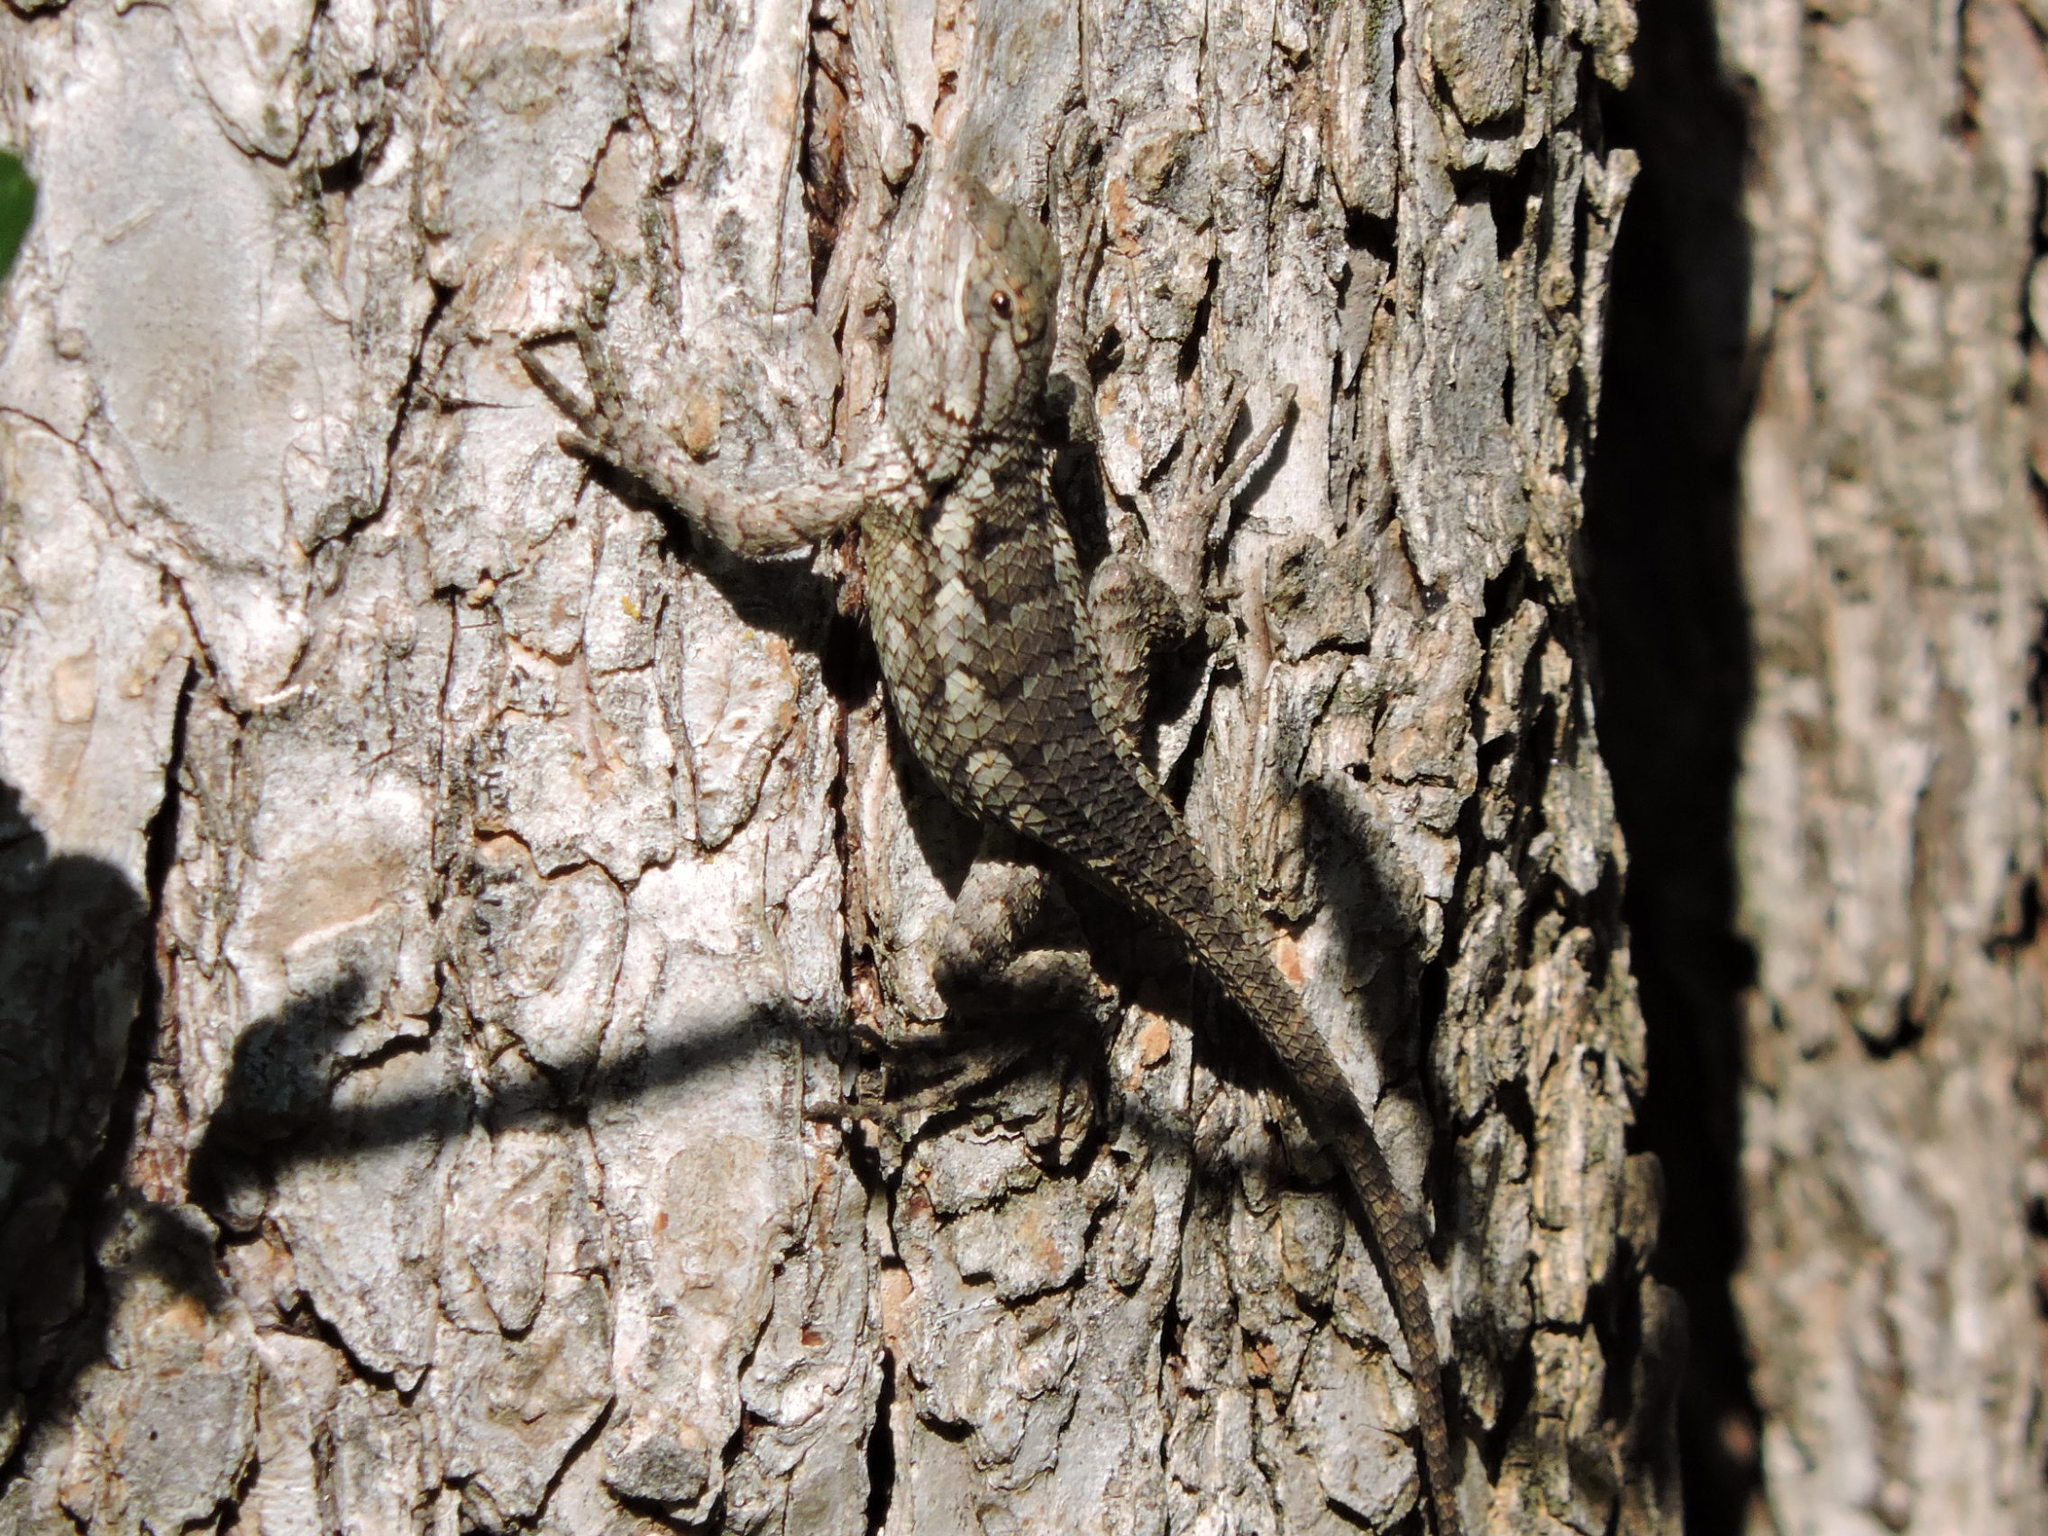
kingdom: Animalia
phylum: Chordata
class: Squamata
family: Phrynosomatidae
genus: Sceloporus
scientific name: Sceloporus olivaceus
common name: Texas spiny lizard
